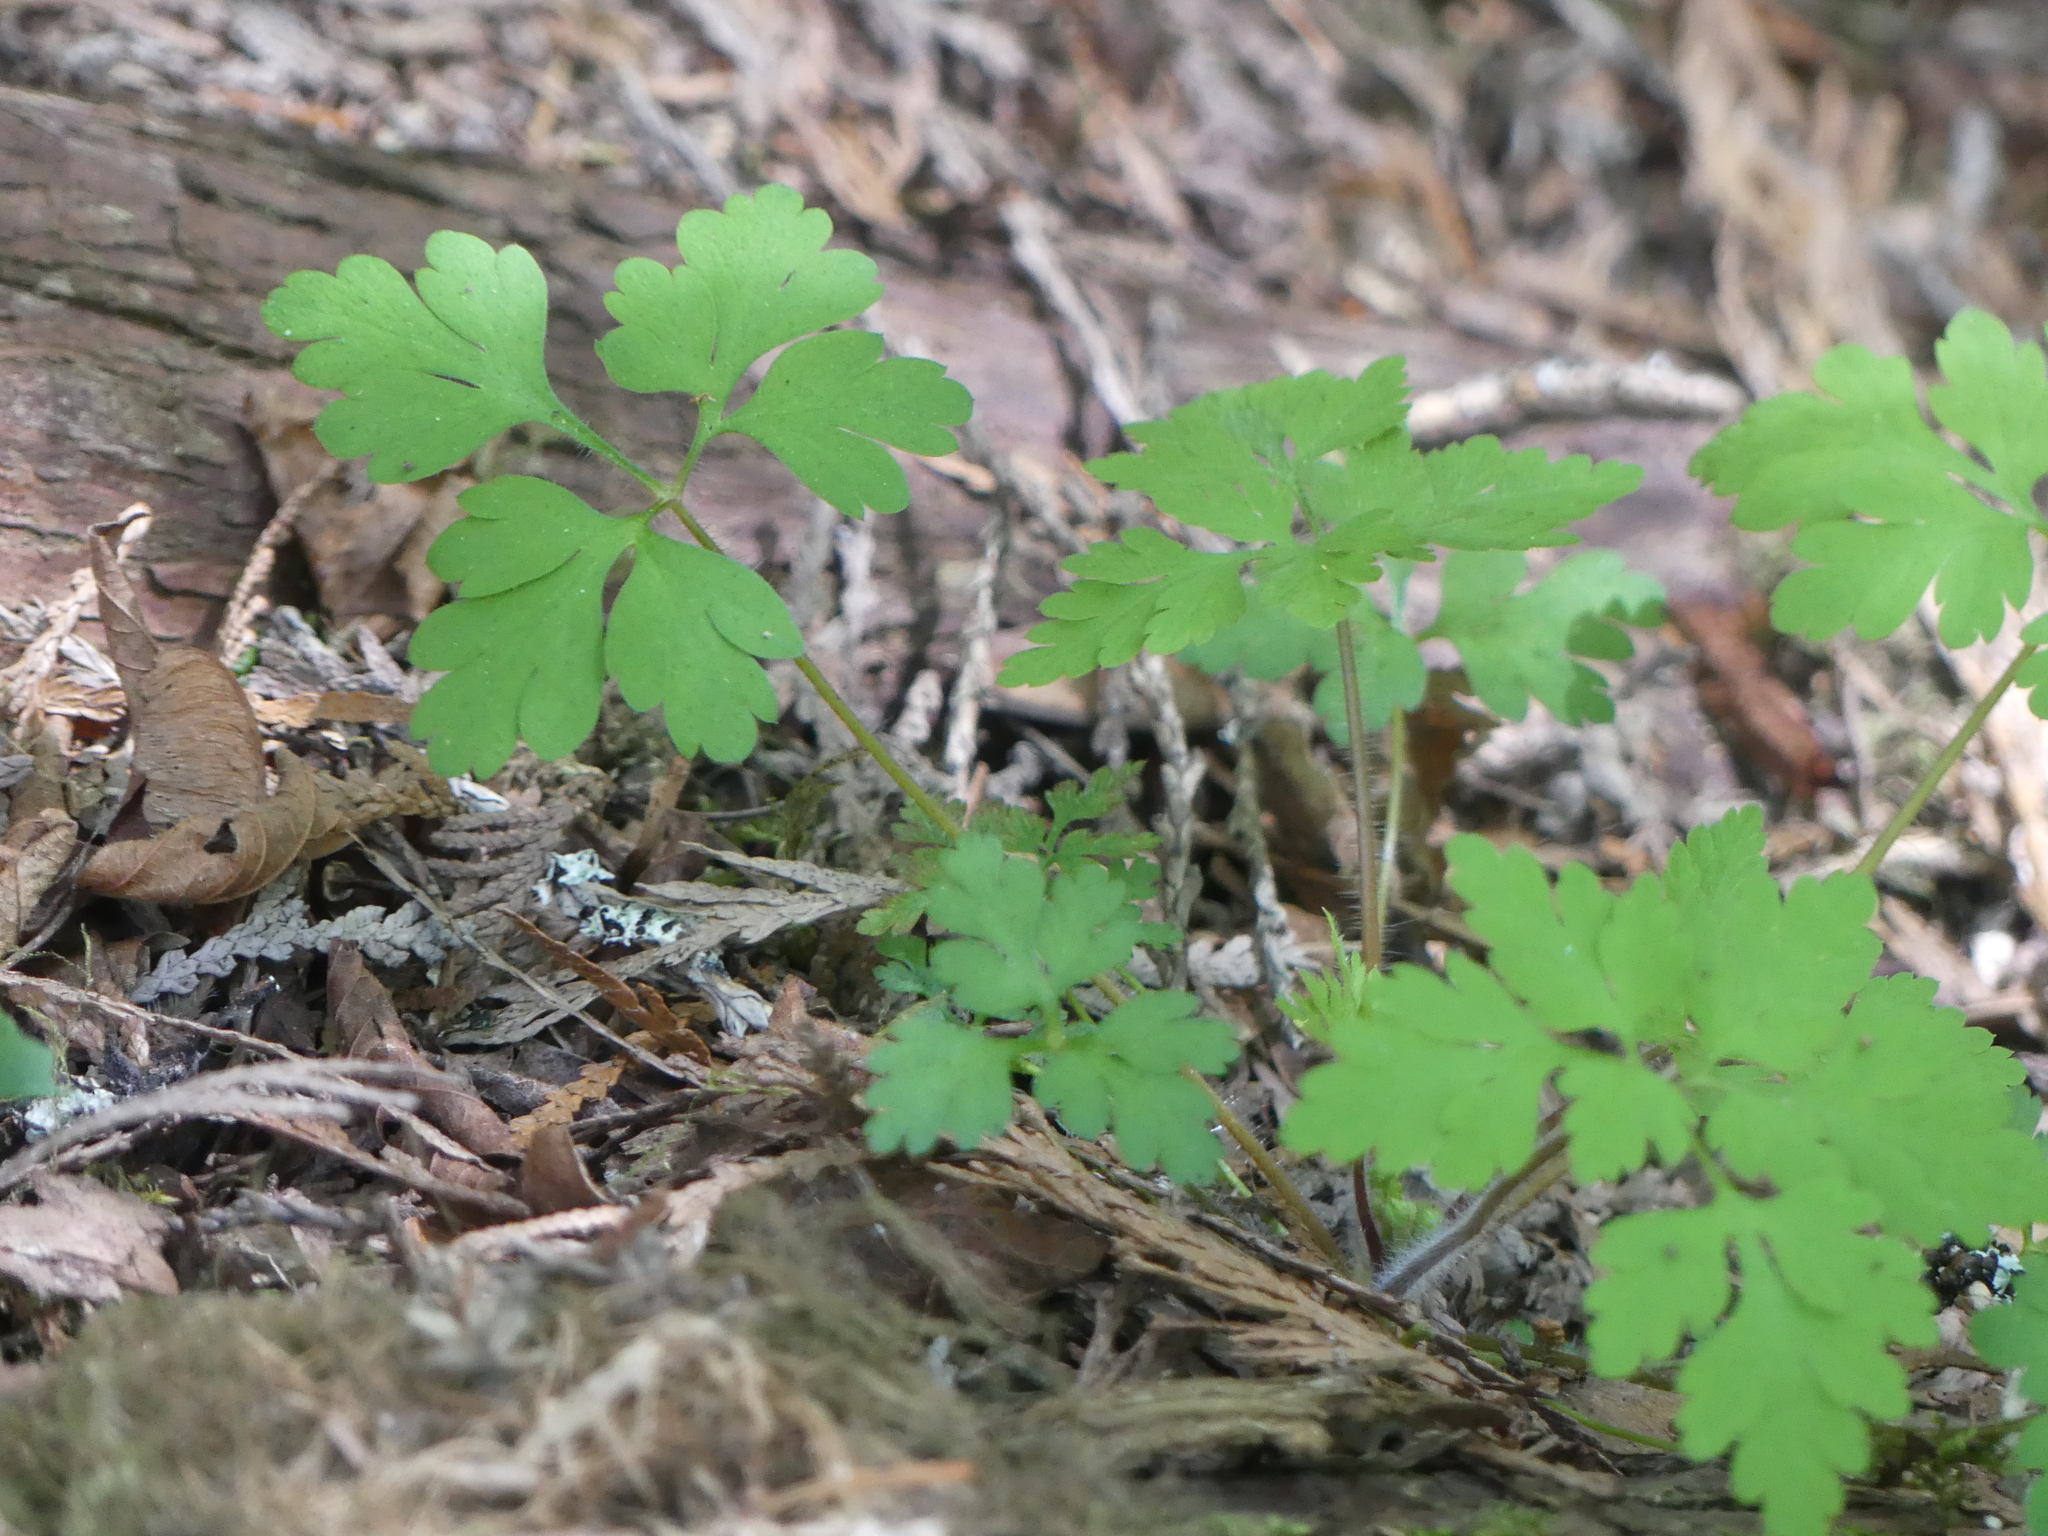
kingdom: Plantae
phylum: Tracheophyta
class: Magnoliopsida
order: Geraniales
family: Geraniaceae
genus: Geranium
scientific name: Geranium robertianum
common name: Herb-robert
